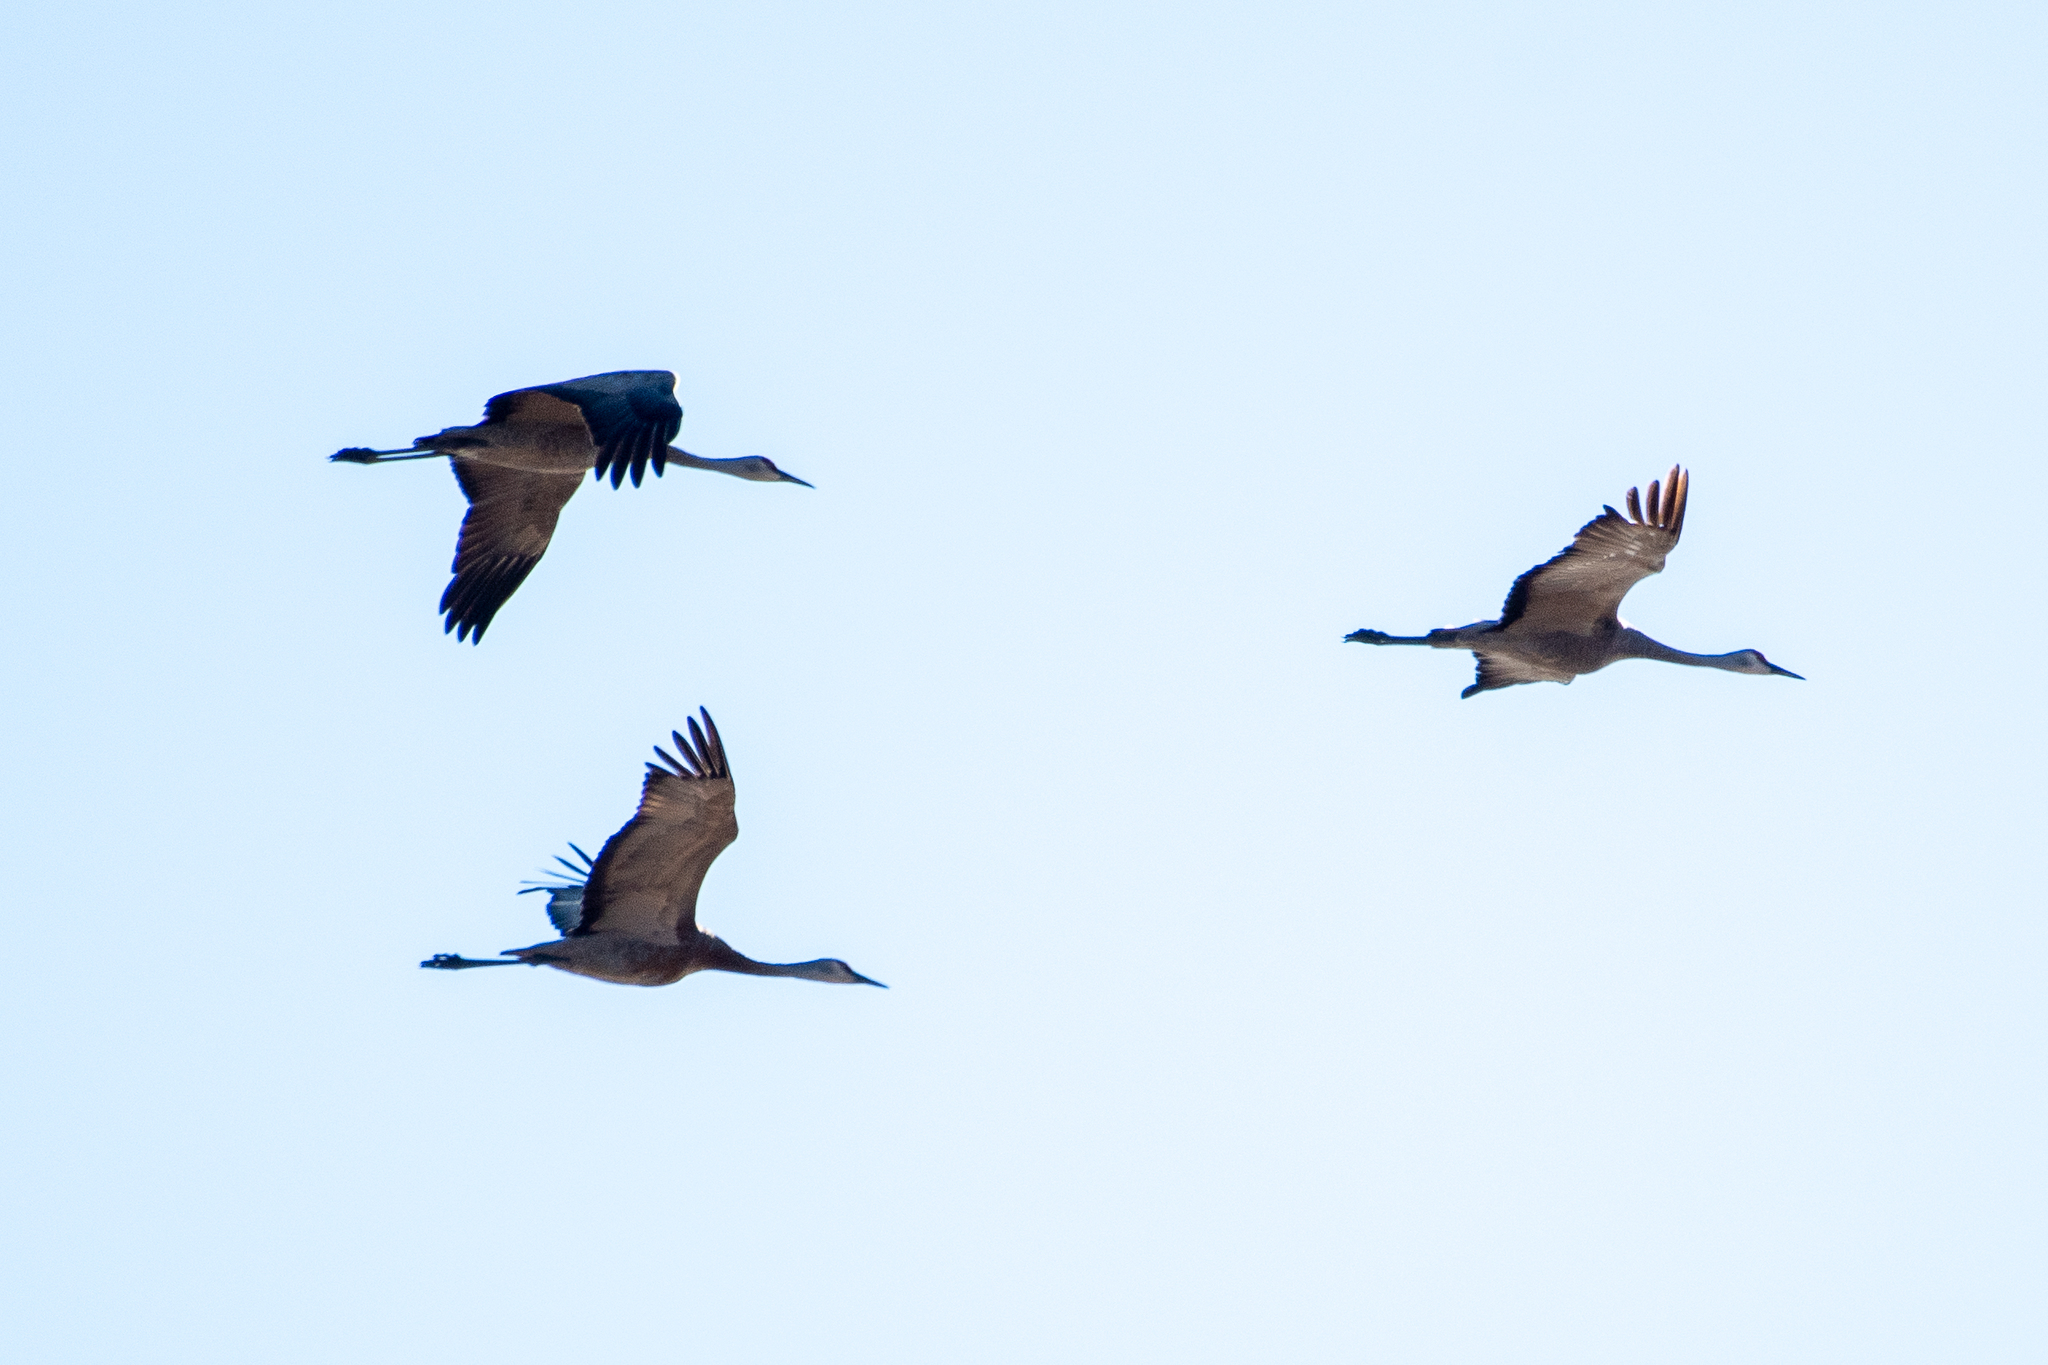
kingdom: Animalia
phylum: Chordata
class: Aves
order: Gruiformes
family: Gruidae
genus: Grus
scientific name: Grus canadensis
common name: Sandhill crane
